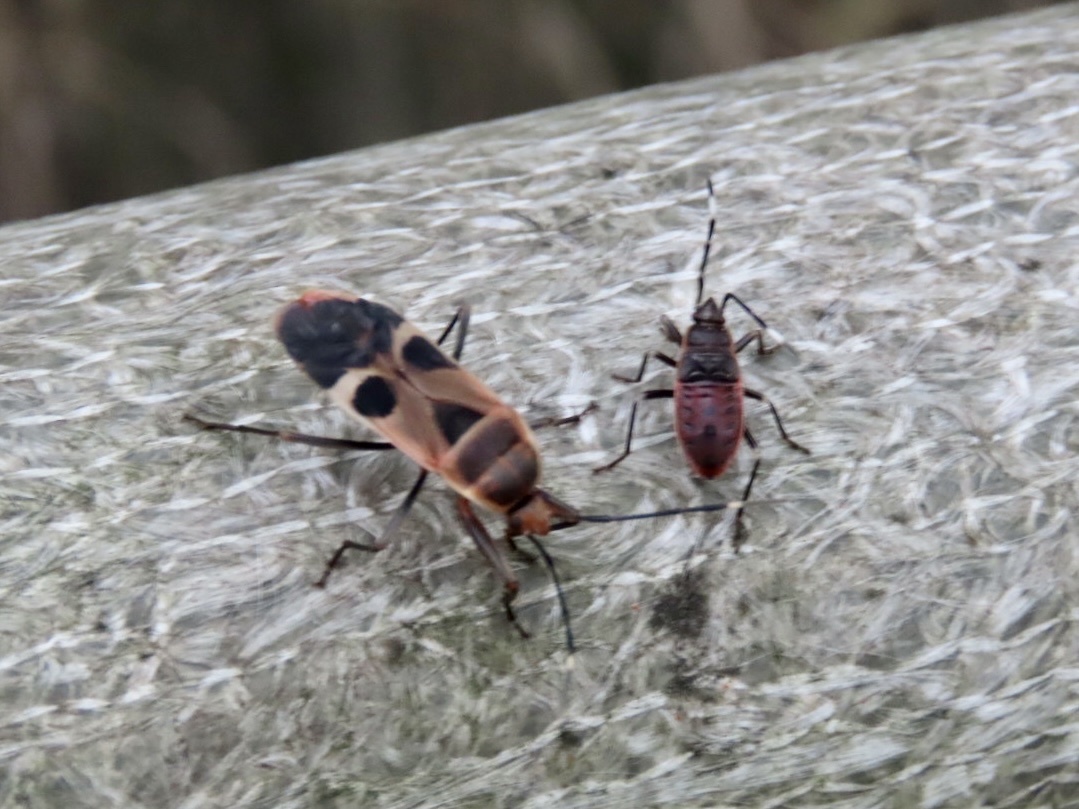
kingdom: Animalia
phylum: Arthropoda
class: Insecta
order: Hemiptera
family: Largidae
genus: Physopelta
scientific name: Physopelta gutta
